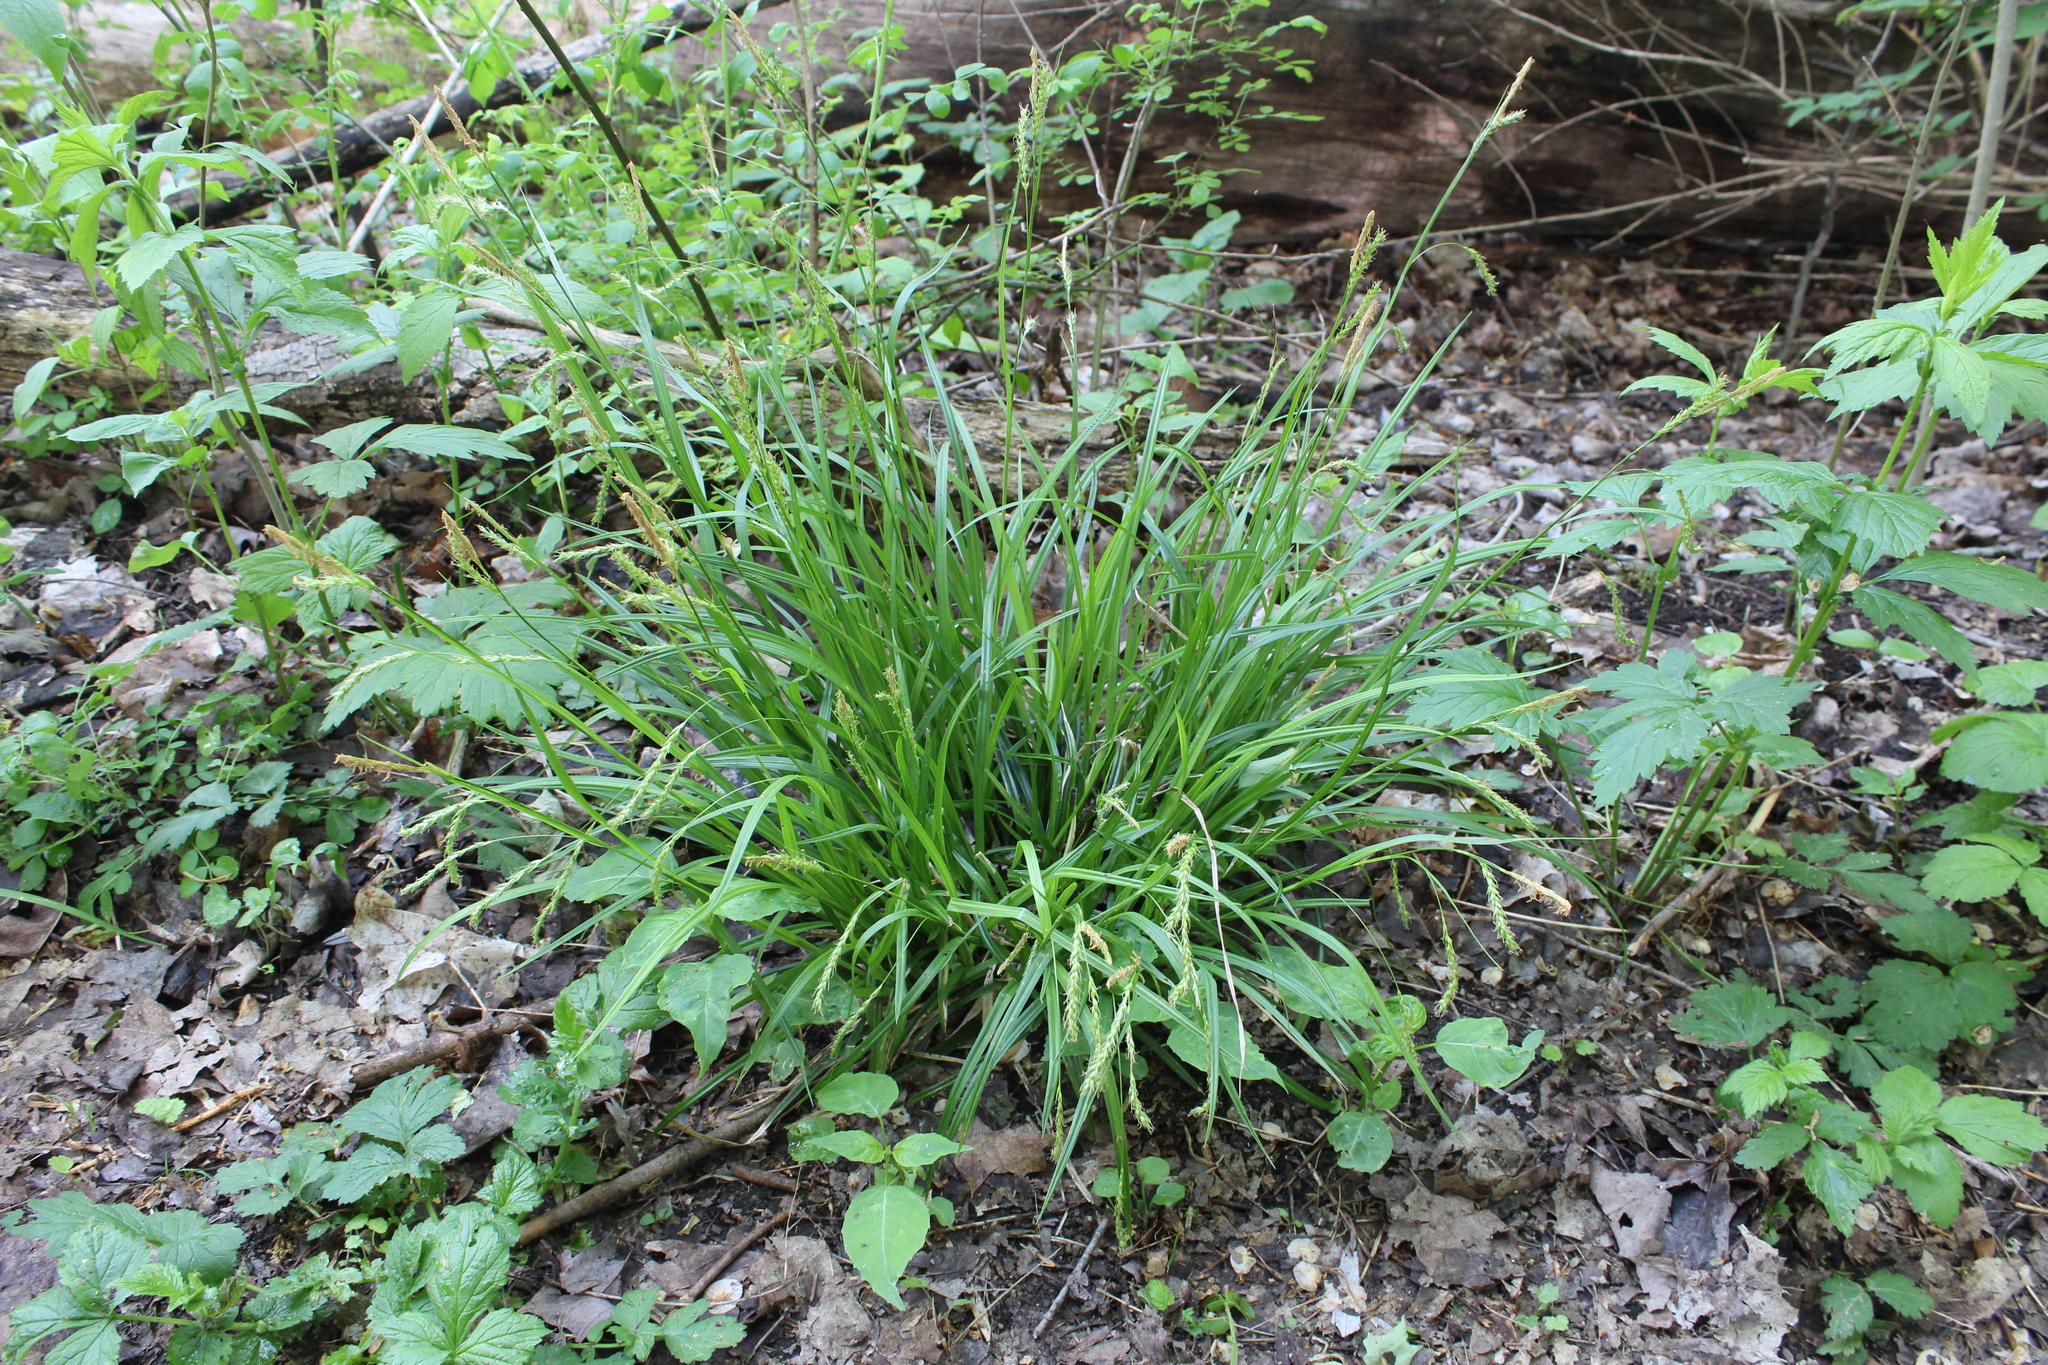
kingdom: Plantae
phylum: Tracheophyta
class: Liliopsida
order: Poales
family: Cyperaceae
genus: Carex
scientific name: Carex sylvatica
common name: Wood-sedge
